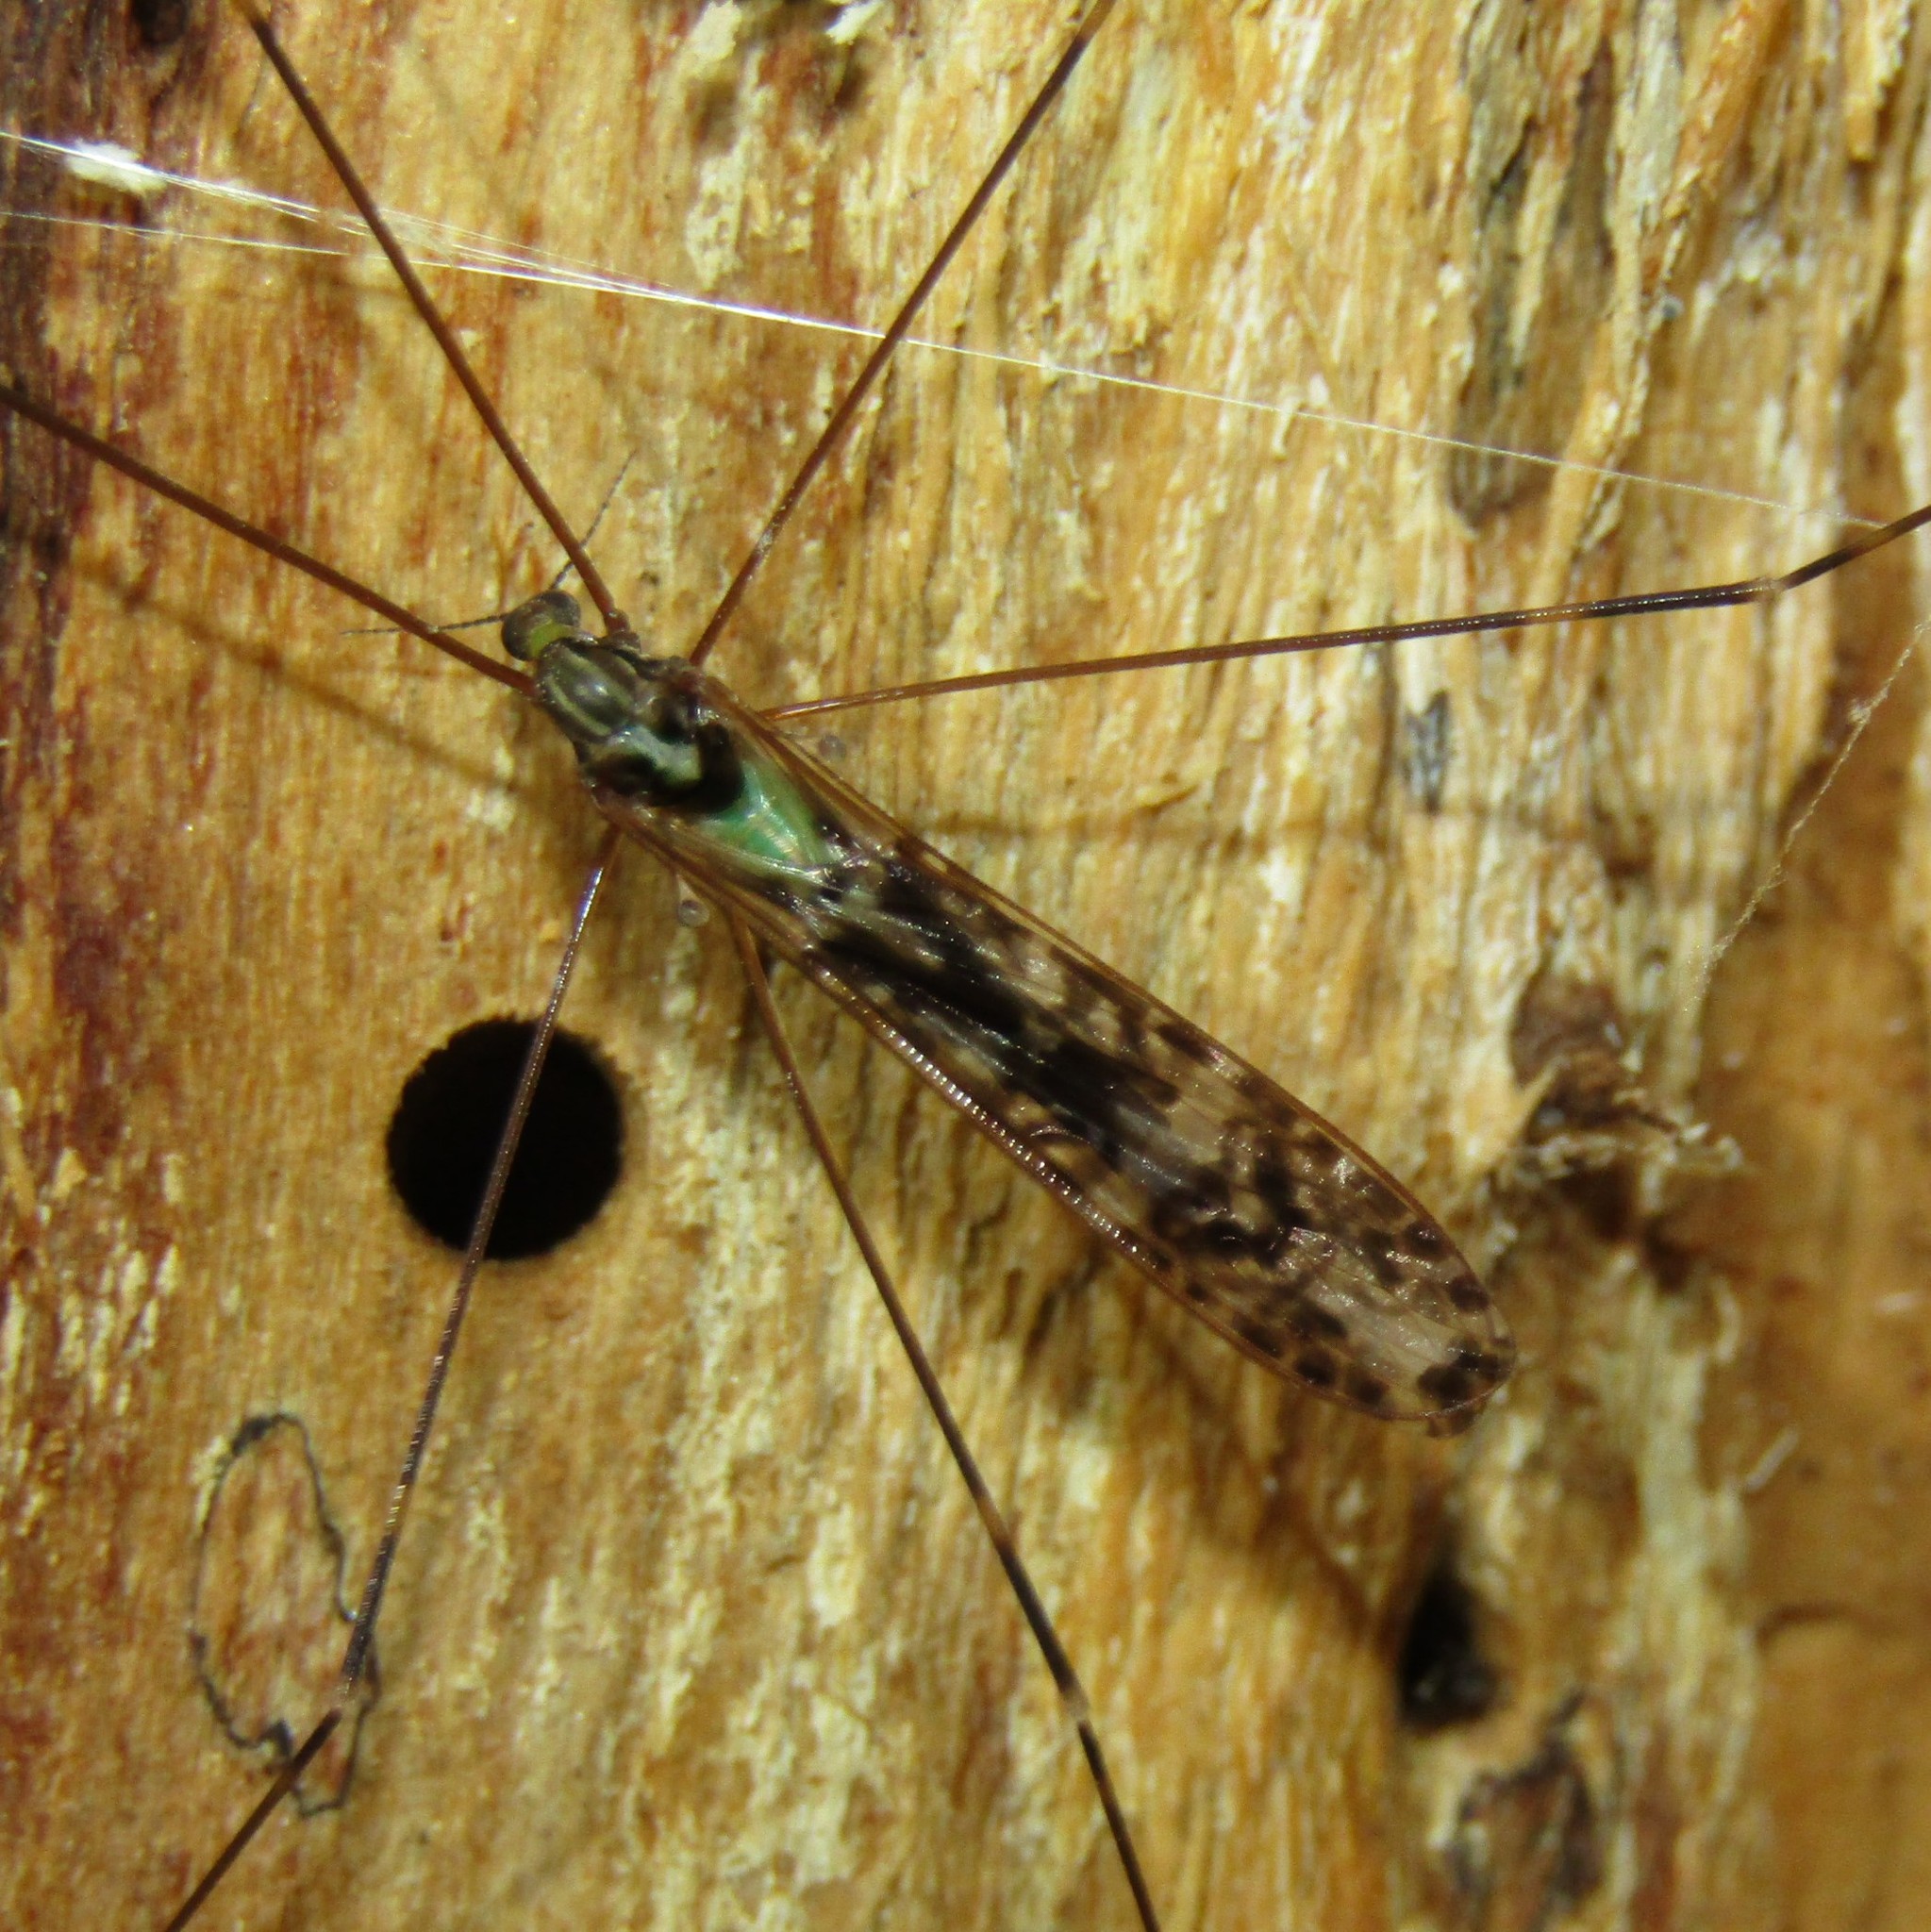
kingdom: Animalia
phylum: Arthropoda
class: Insecta
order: Diptera
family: Limoniidae
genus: Discobola
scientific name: Discobola dohrni
